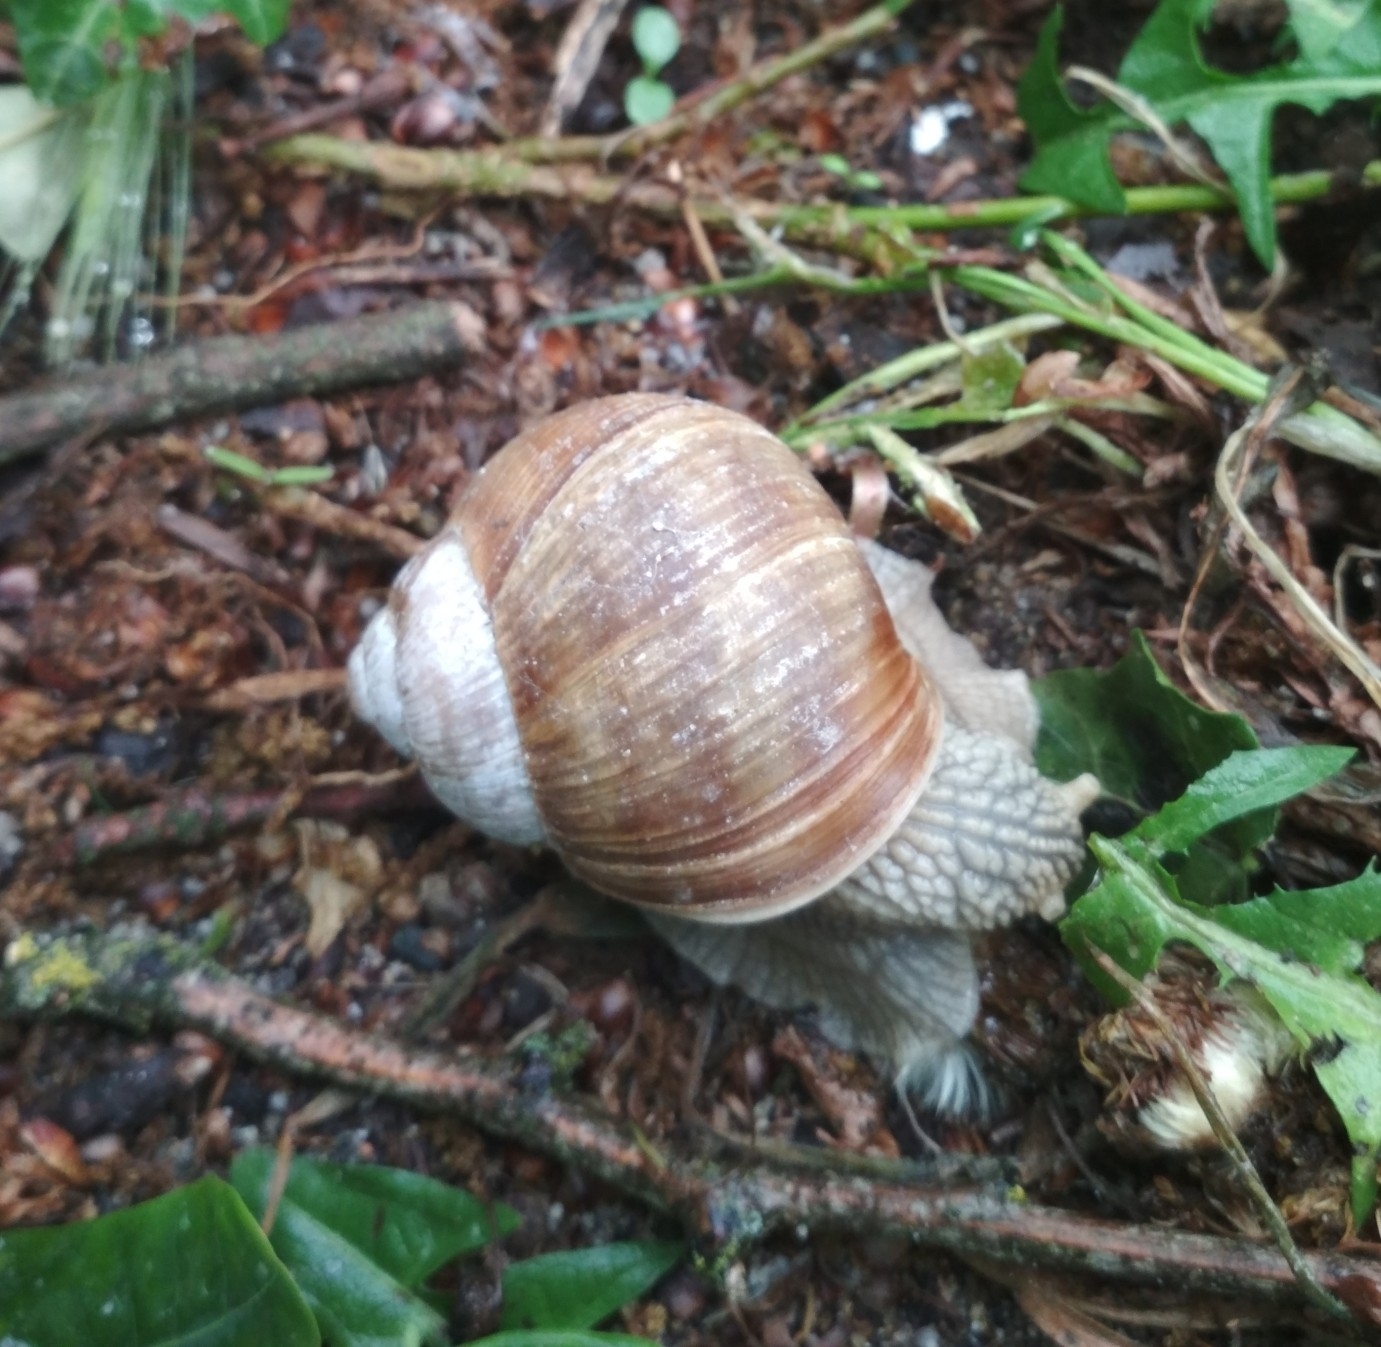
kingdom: Animalia
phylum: Mollusca
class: Gastropoda
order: Stylommatophora
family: Helicidae
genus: Helix
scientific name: Helix pomatia
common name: Roman snail
